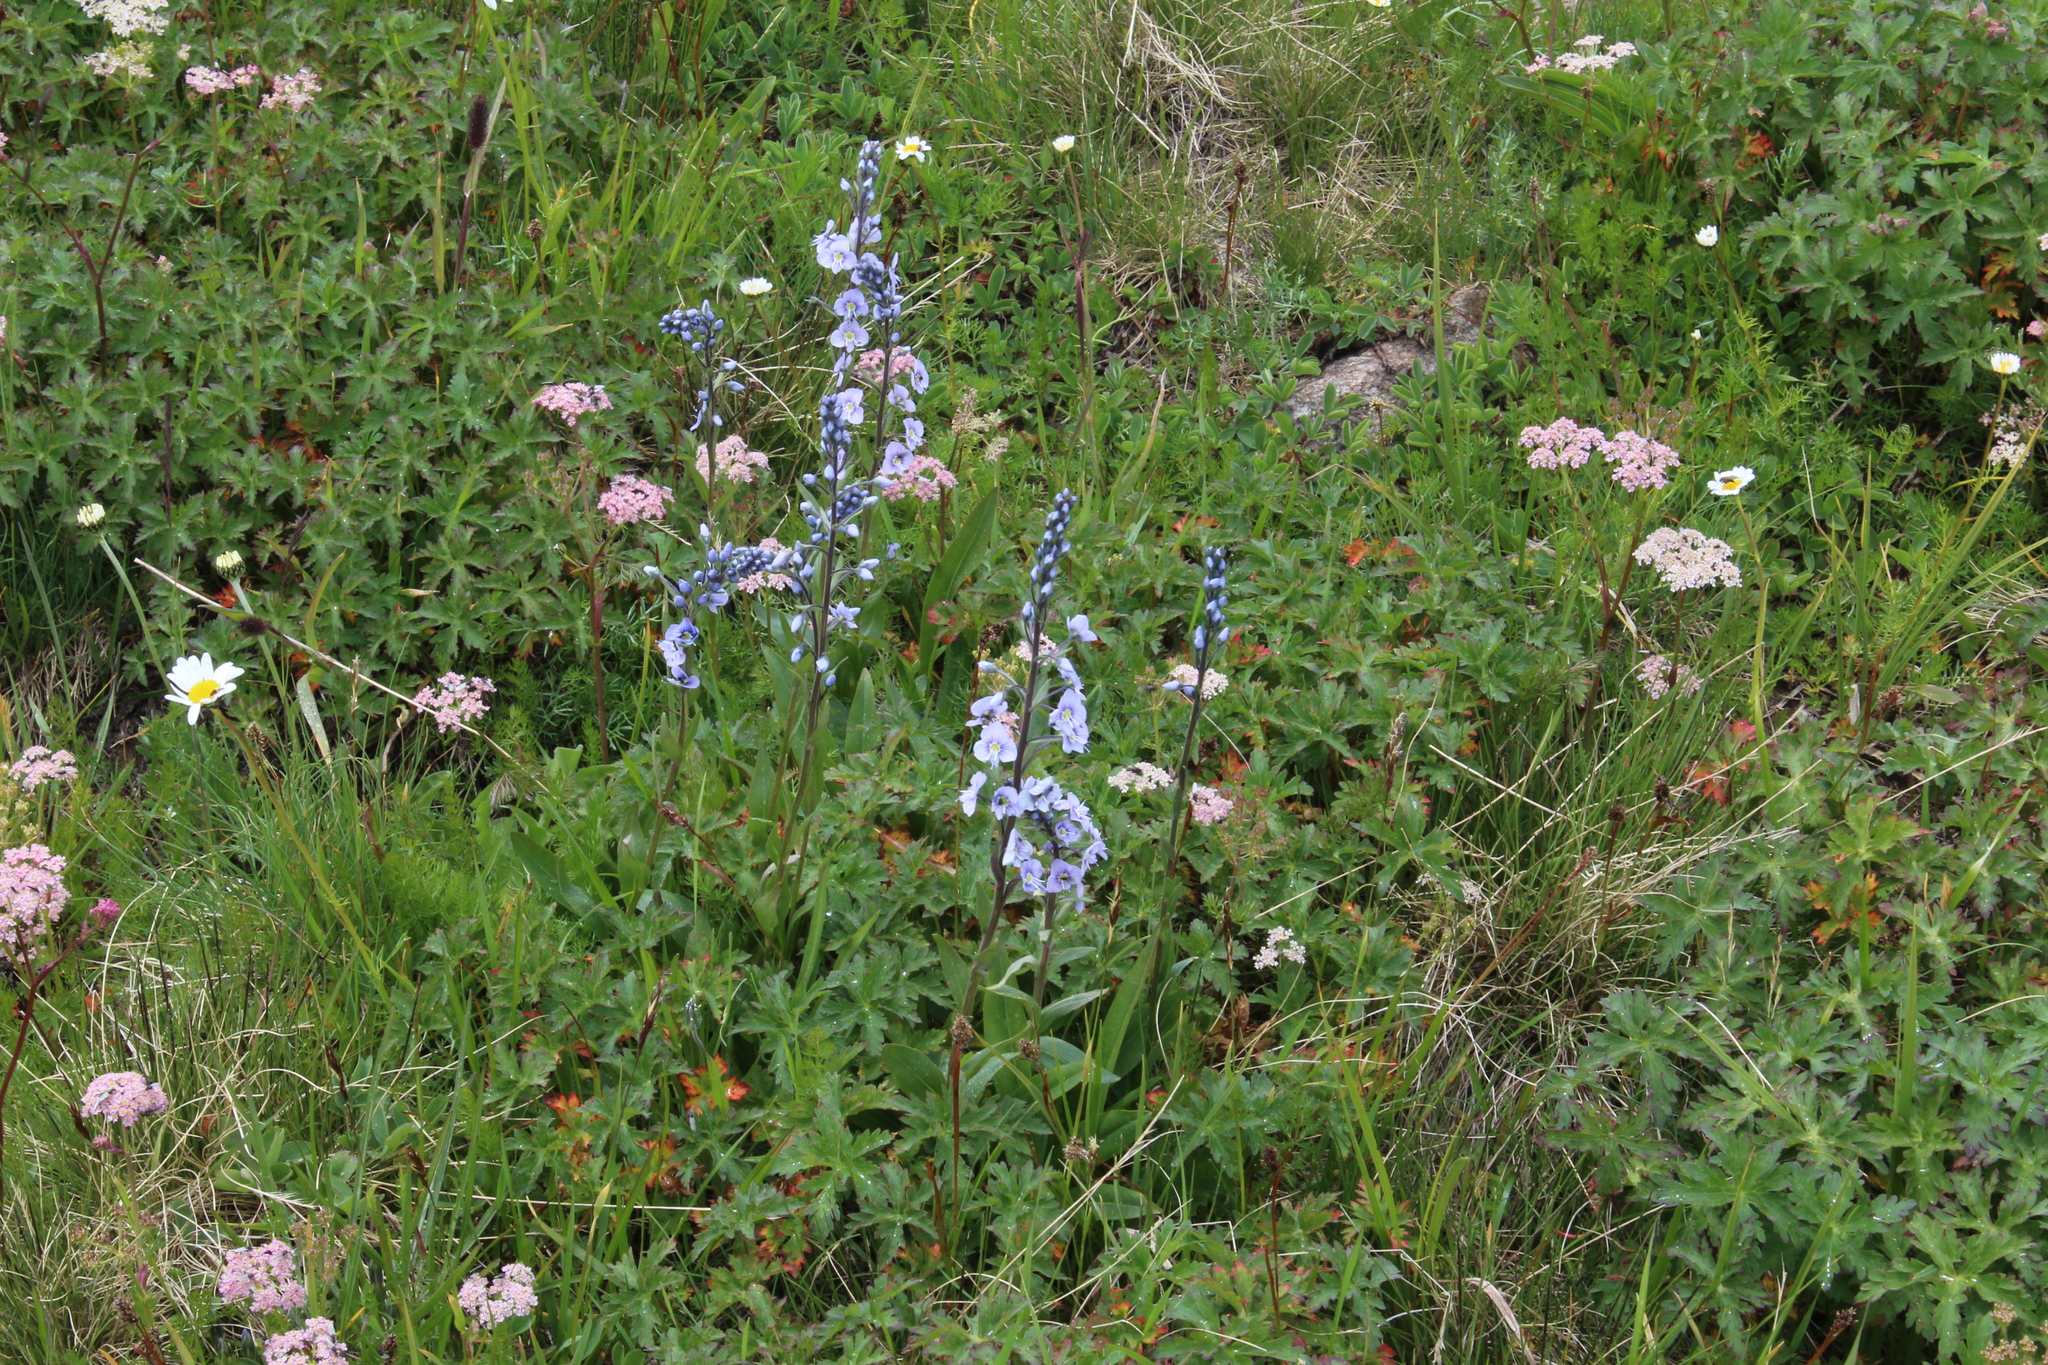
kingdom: Plantae
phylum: Tracheophyta
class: Magnoliopsida
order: Lamiales
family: Plantaginaceae
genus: Veronica
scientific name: Veronica gentianoides
